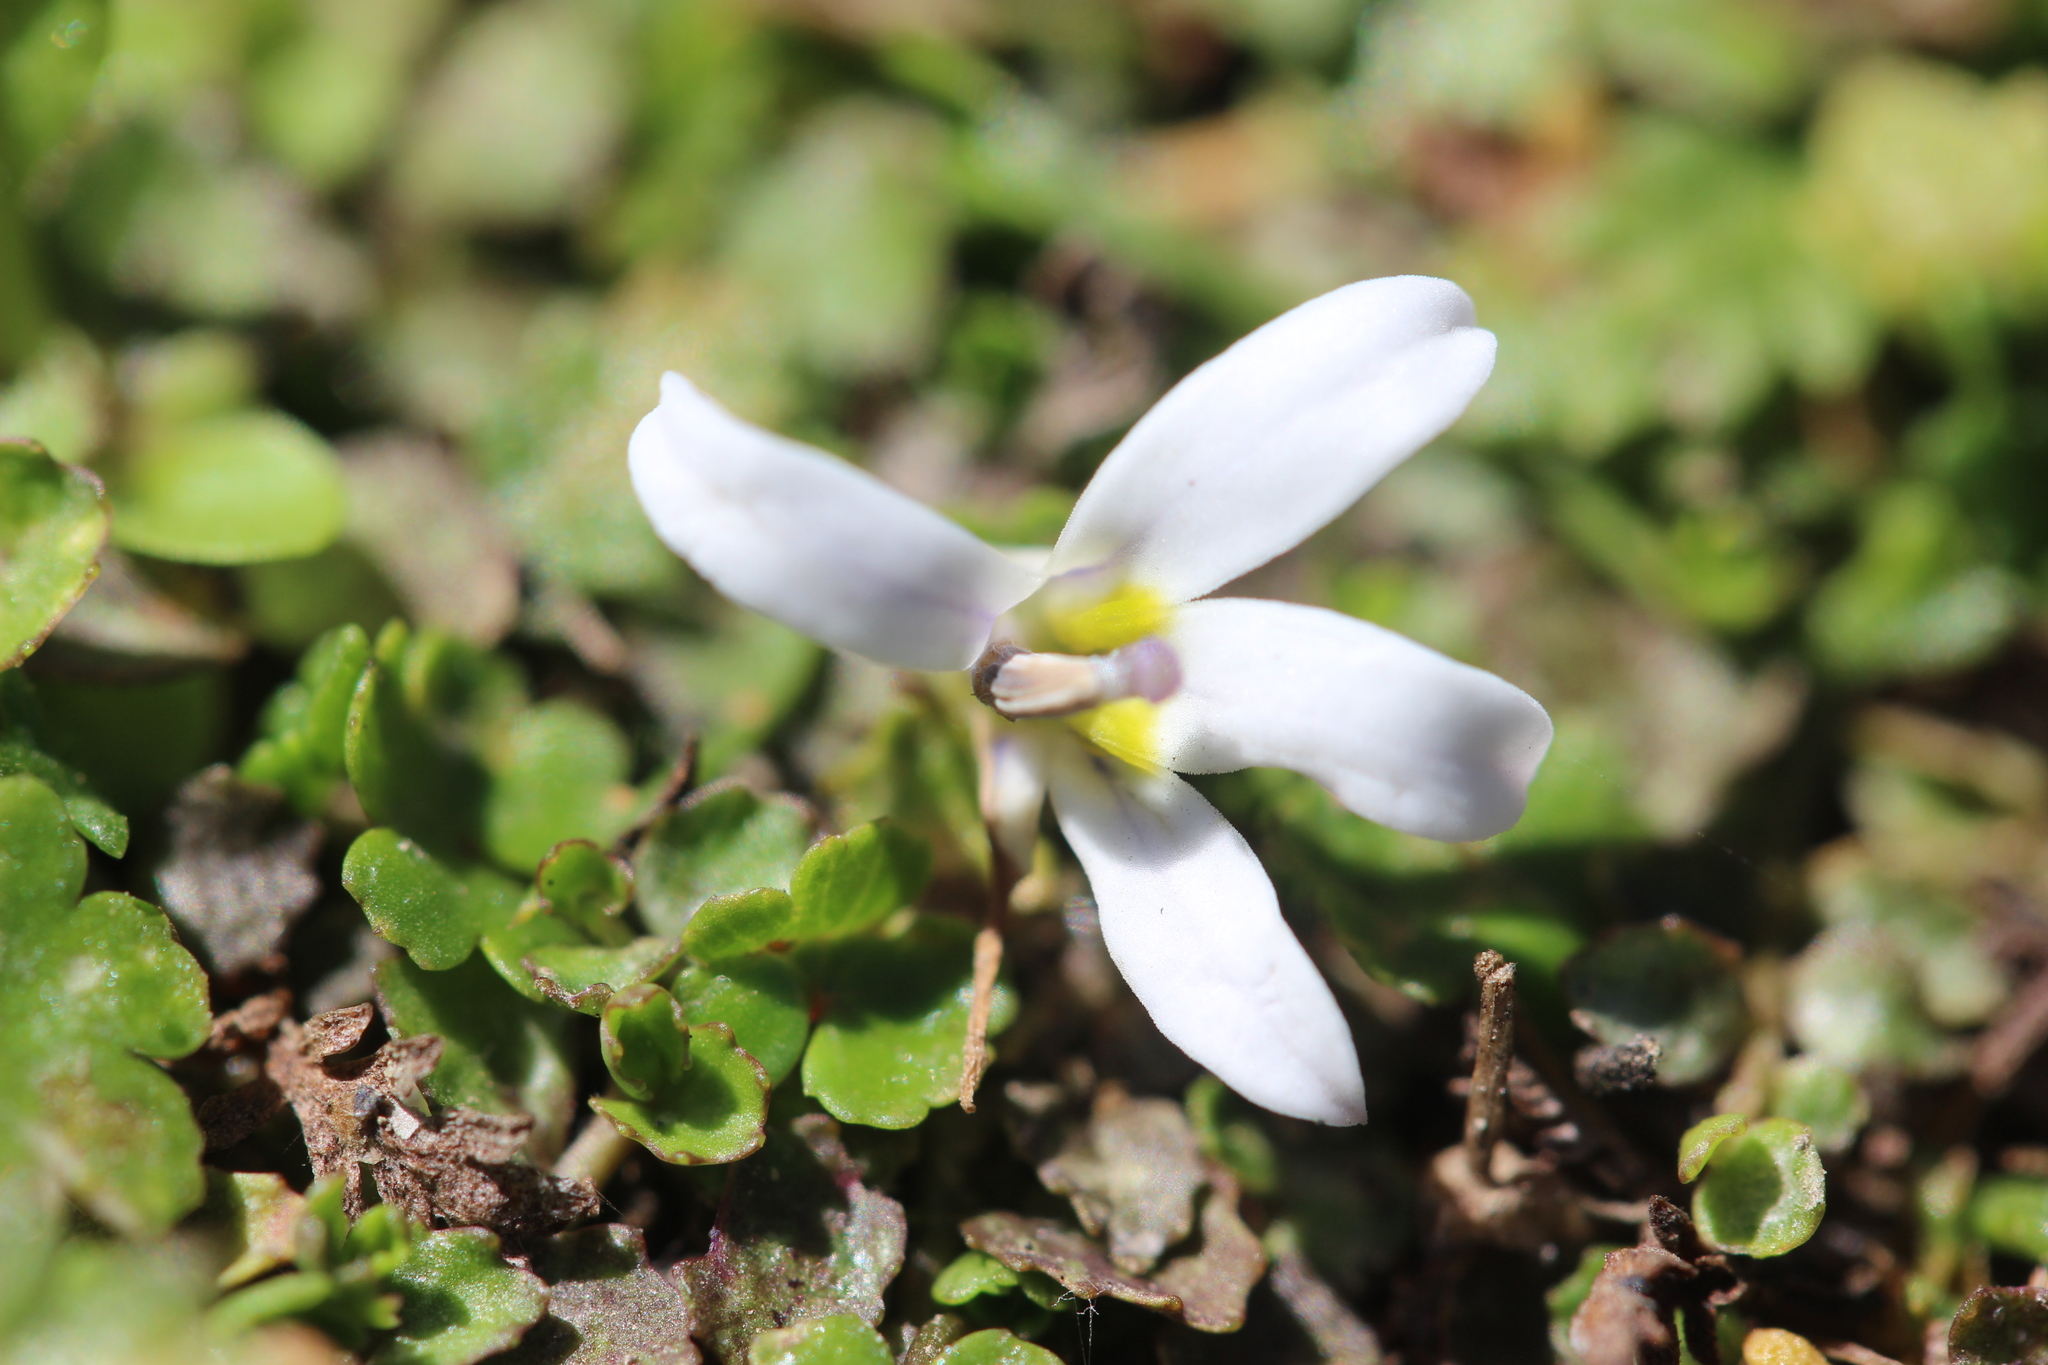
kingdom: Plantae
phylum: Tracheophyta
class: Magnoliopsida
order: Asterales
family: Campanulaceae
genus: Lobelia
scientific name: Lobelia perpusilla
